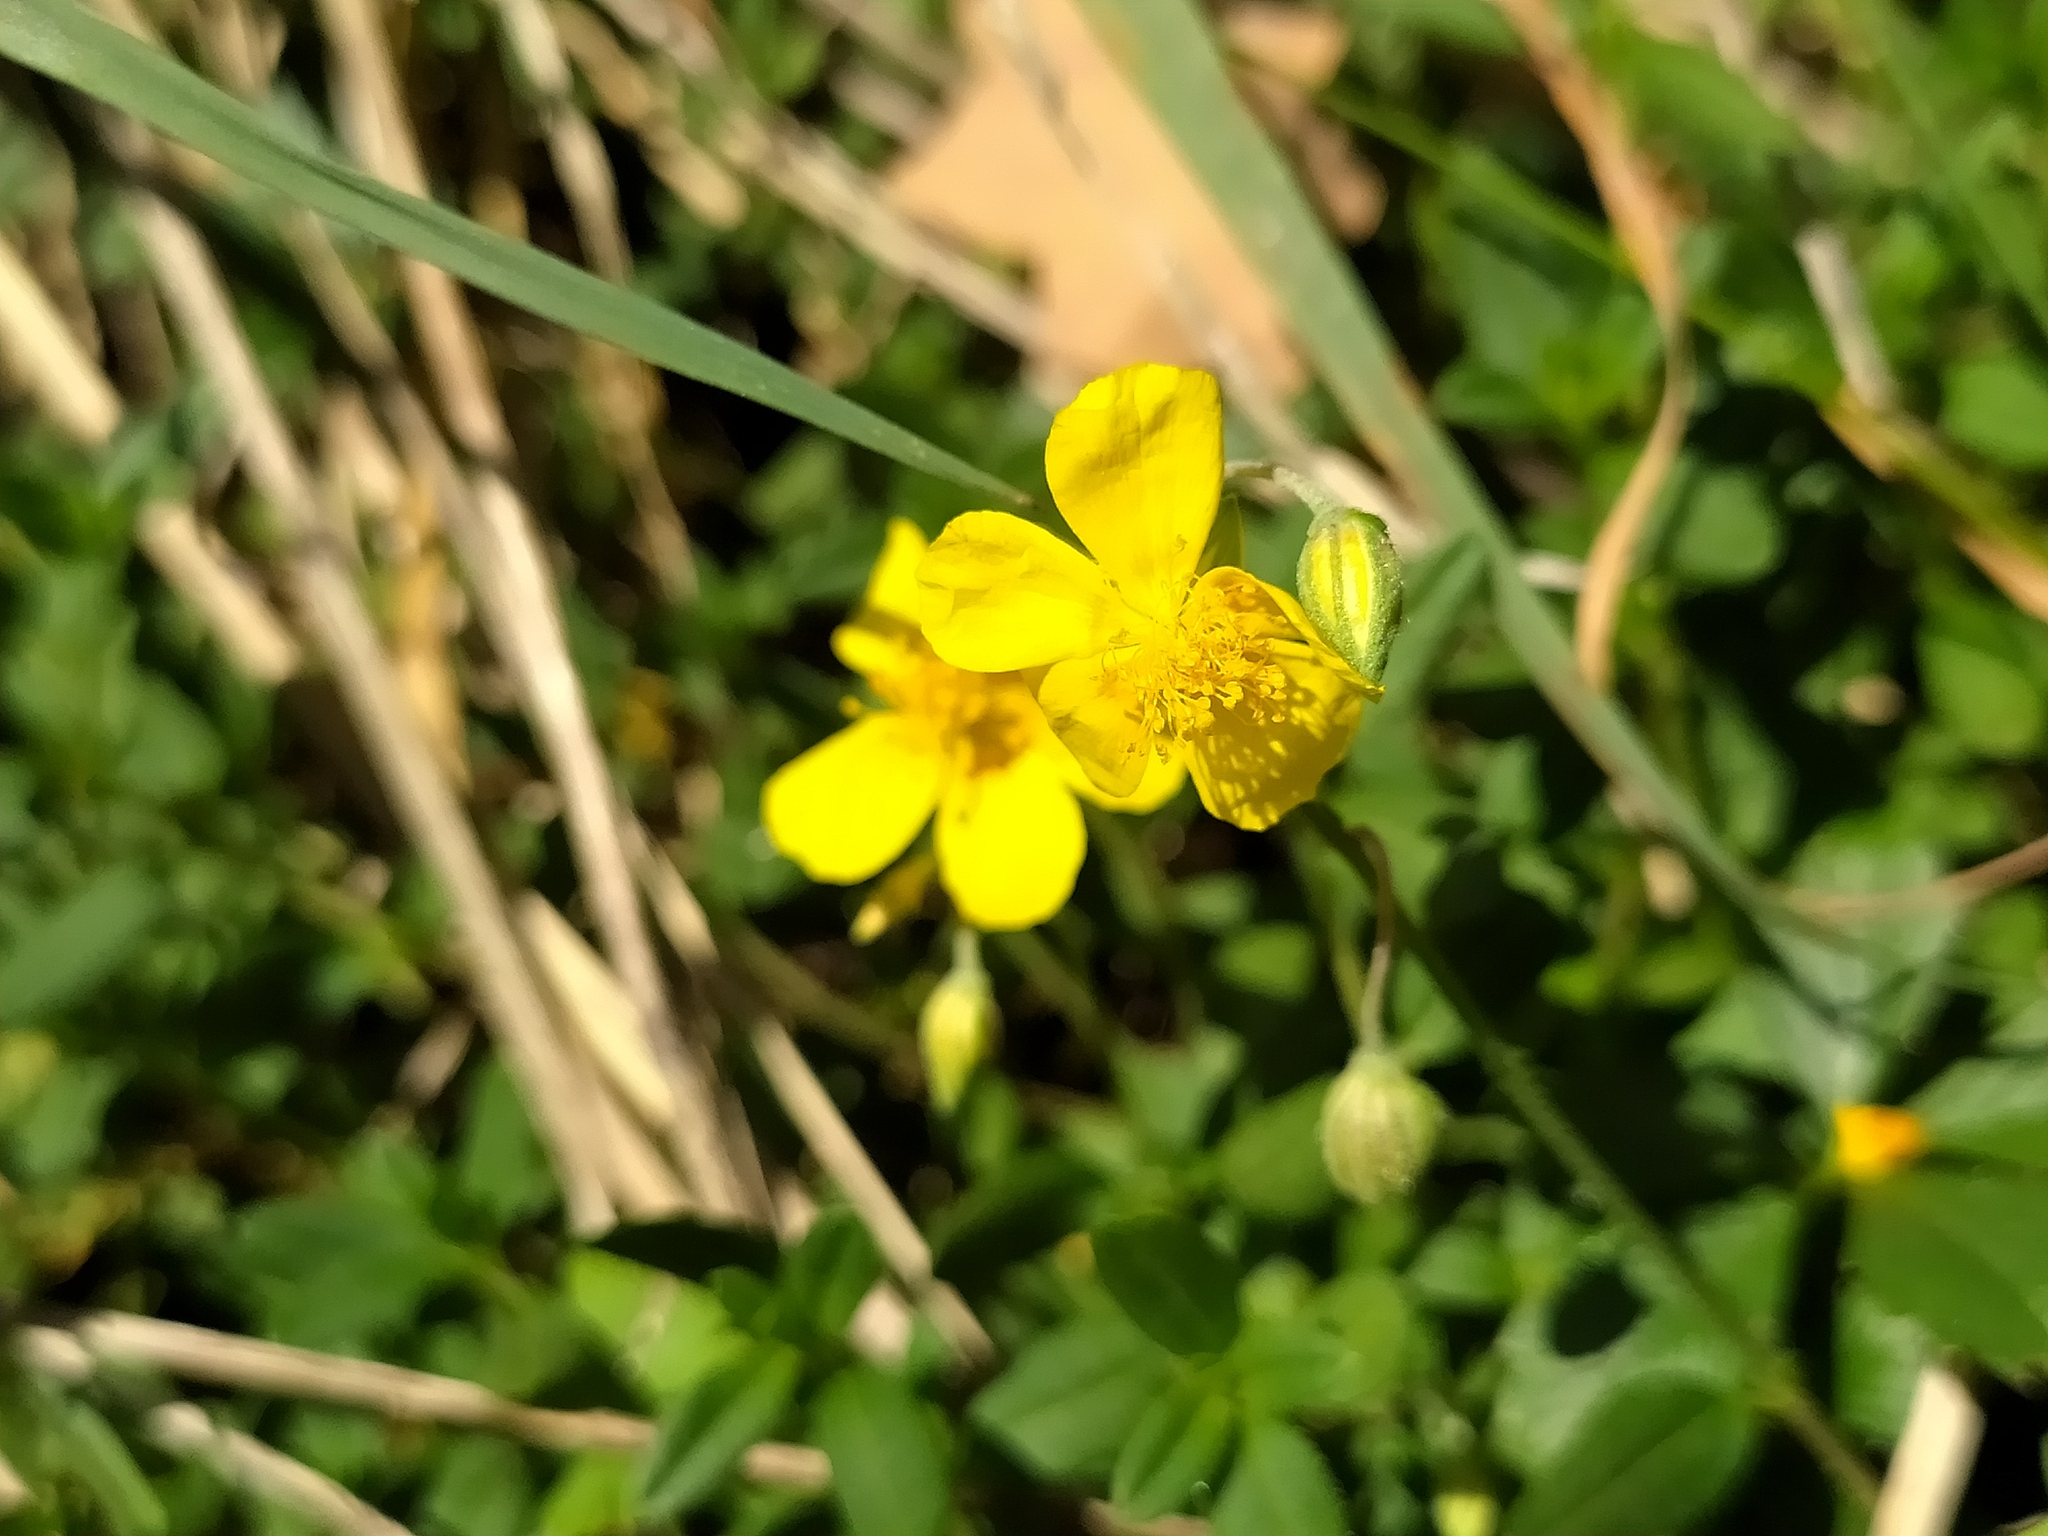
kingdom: Plantae
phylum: Tracheophyta
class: Magnoliopsida
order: Malvales
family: Cistaceae
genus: Helianthemum
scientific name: Helianthemum nummularium
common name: Common rock-rose
